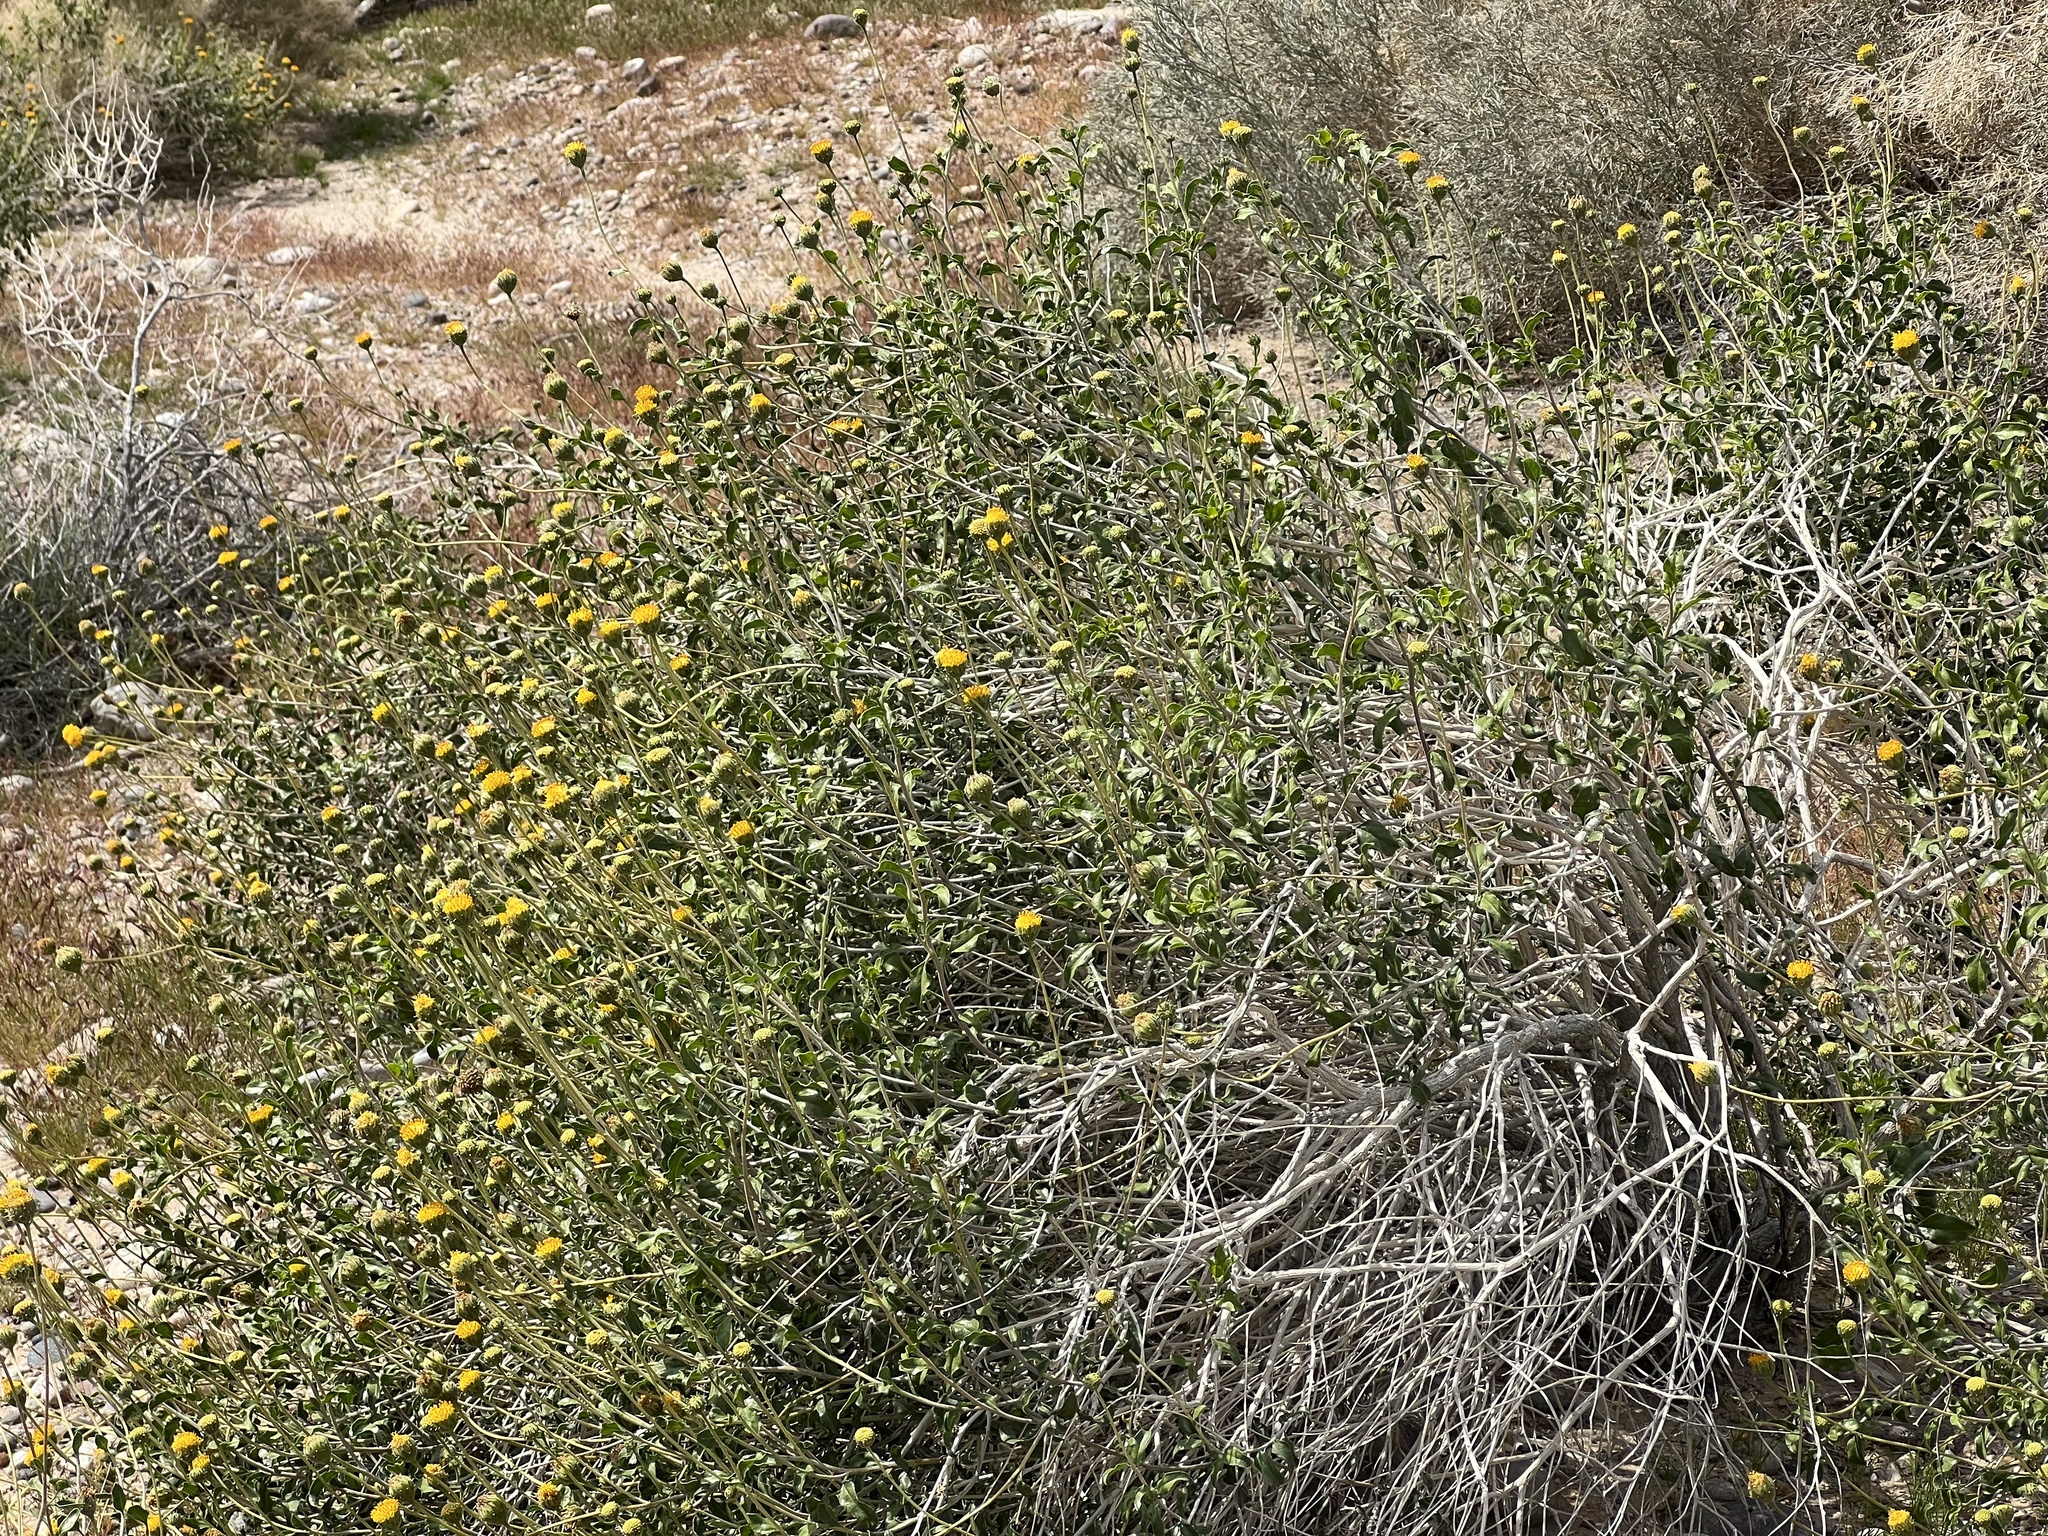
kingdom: Plantae
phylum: Tracheophyta
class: Magnoliopsida
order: Asterales
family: Asteraceae
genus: Encelia
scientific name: Encelia frutescens
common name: Bush encelia
